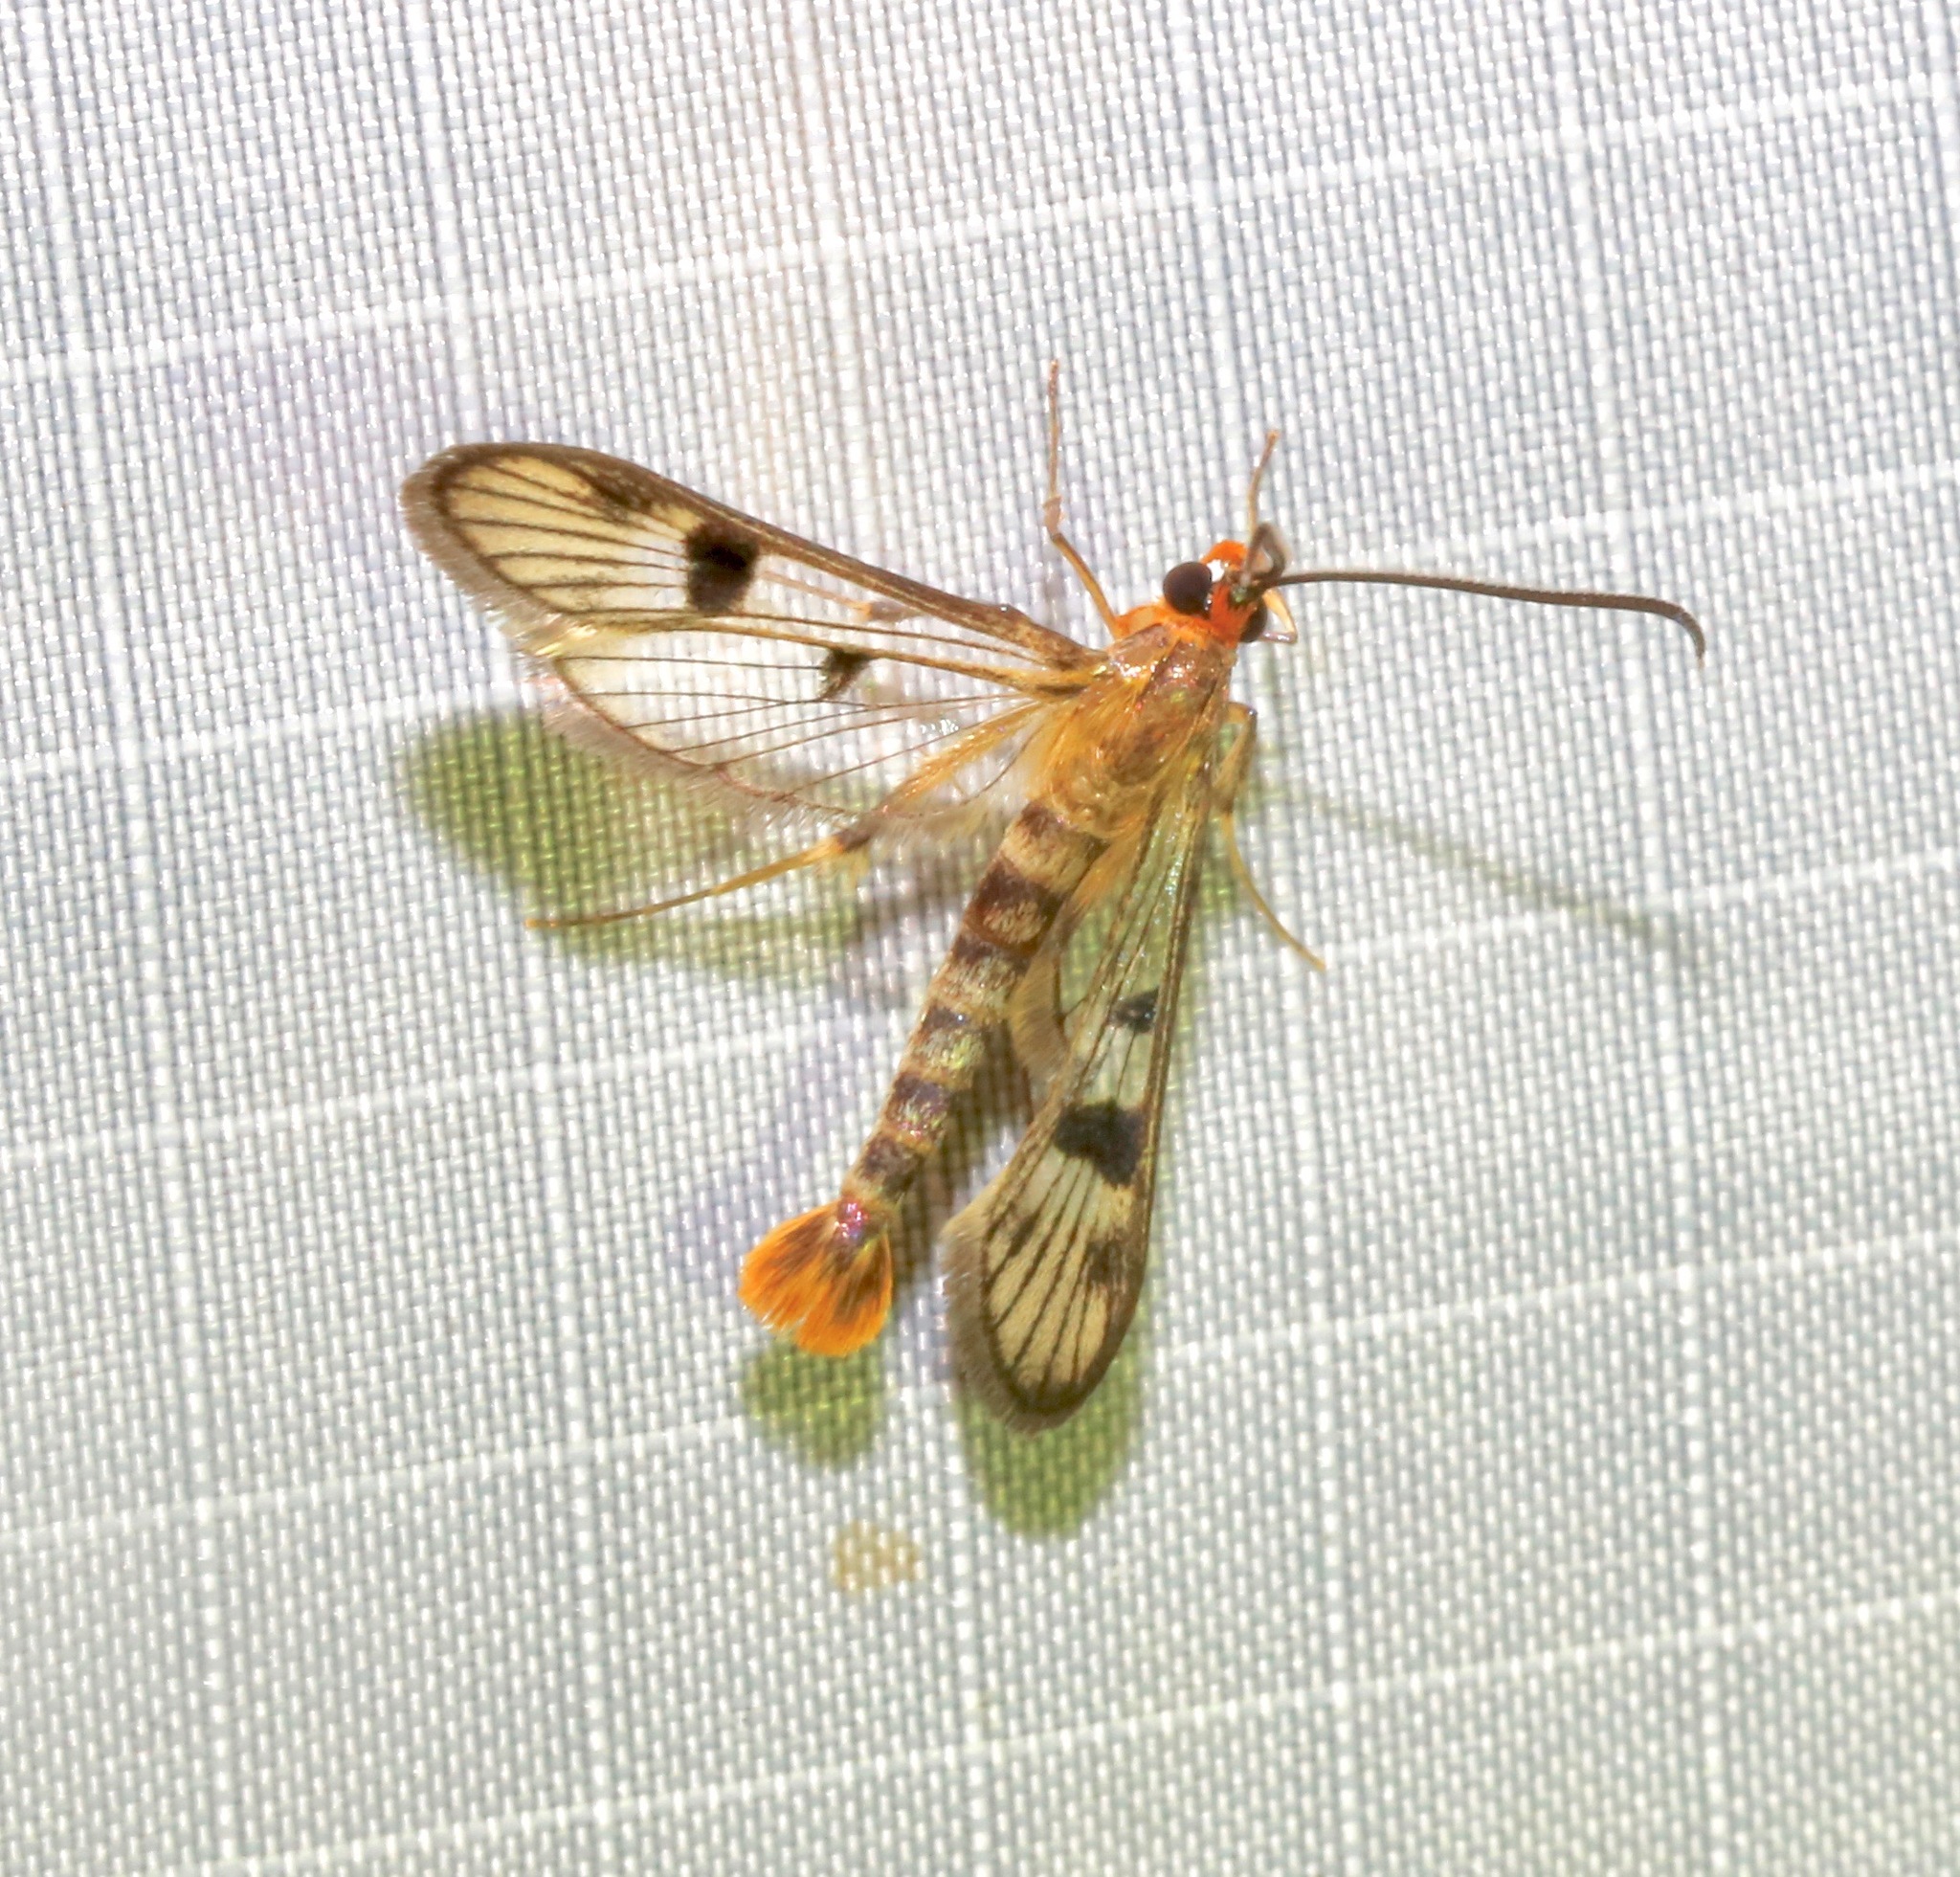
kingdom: Animalia
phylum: Arthropoda
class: Insecta
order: Lepidoptera
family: Sesiidae
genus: Synanthedon
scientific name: Synanthedon acerni
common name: Maple callus borer moth
